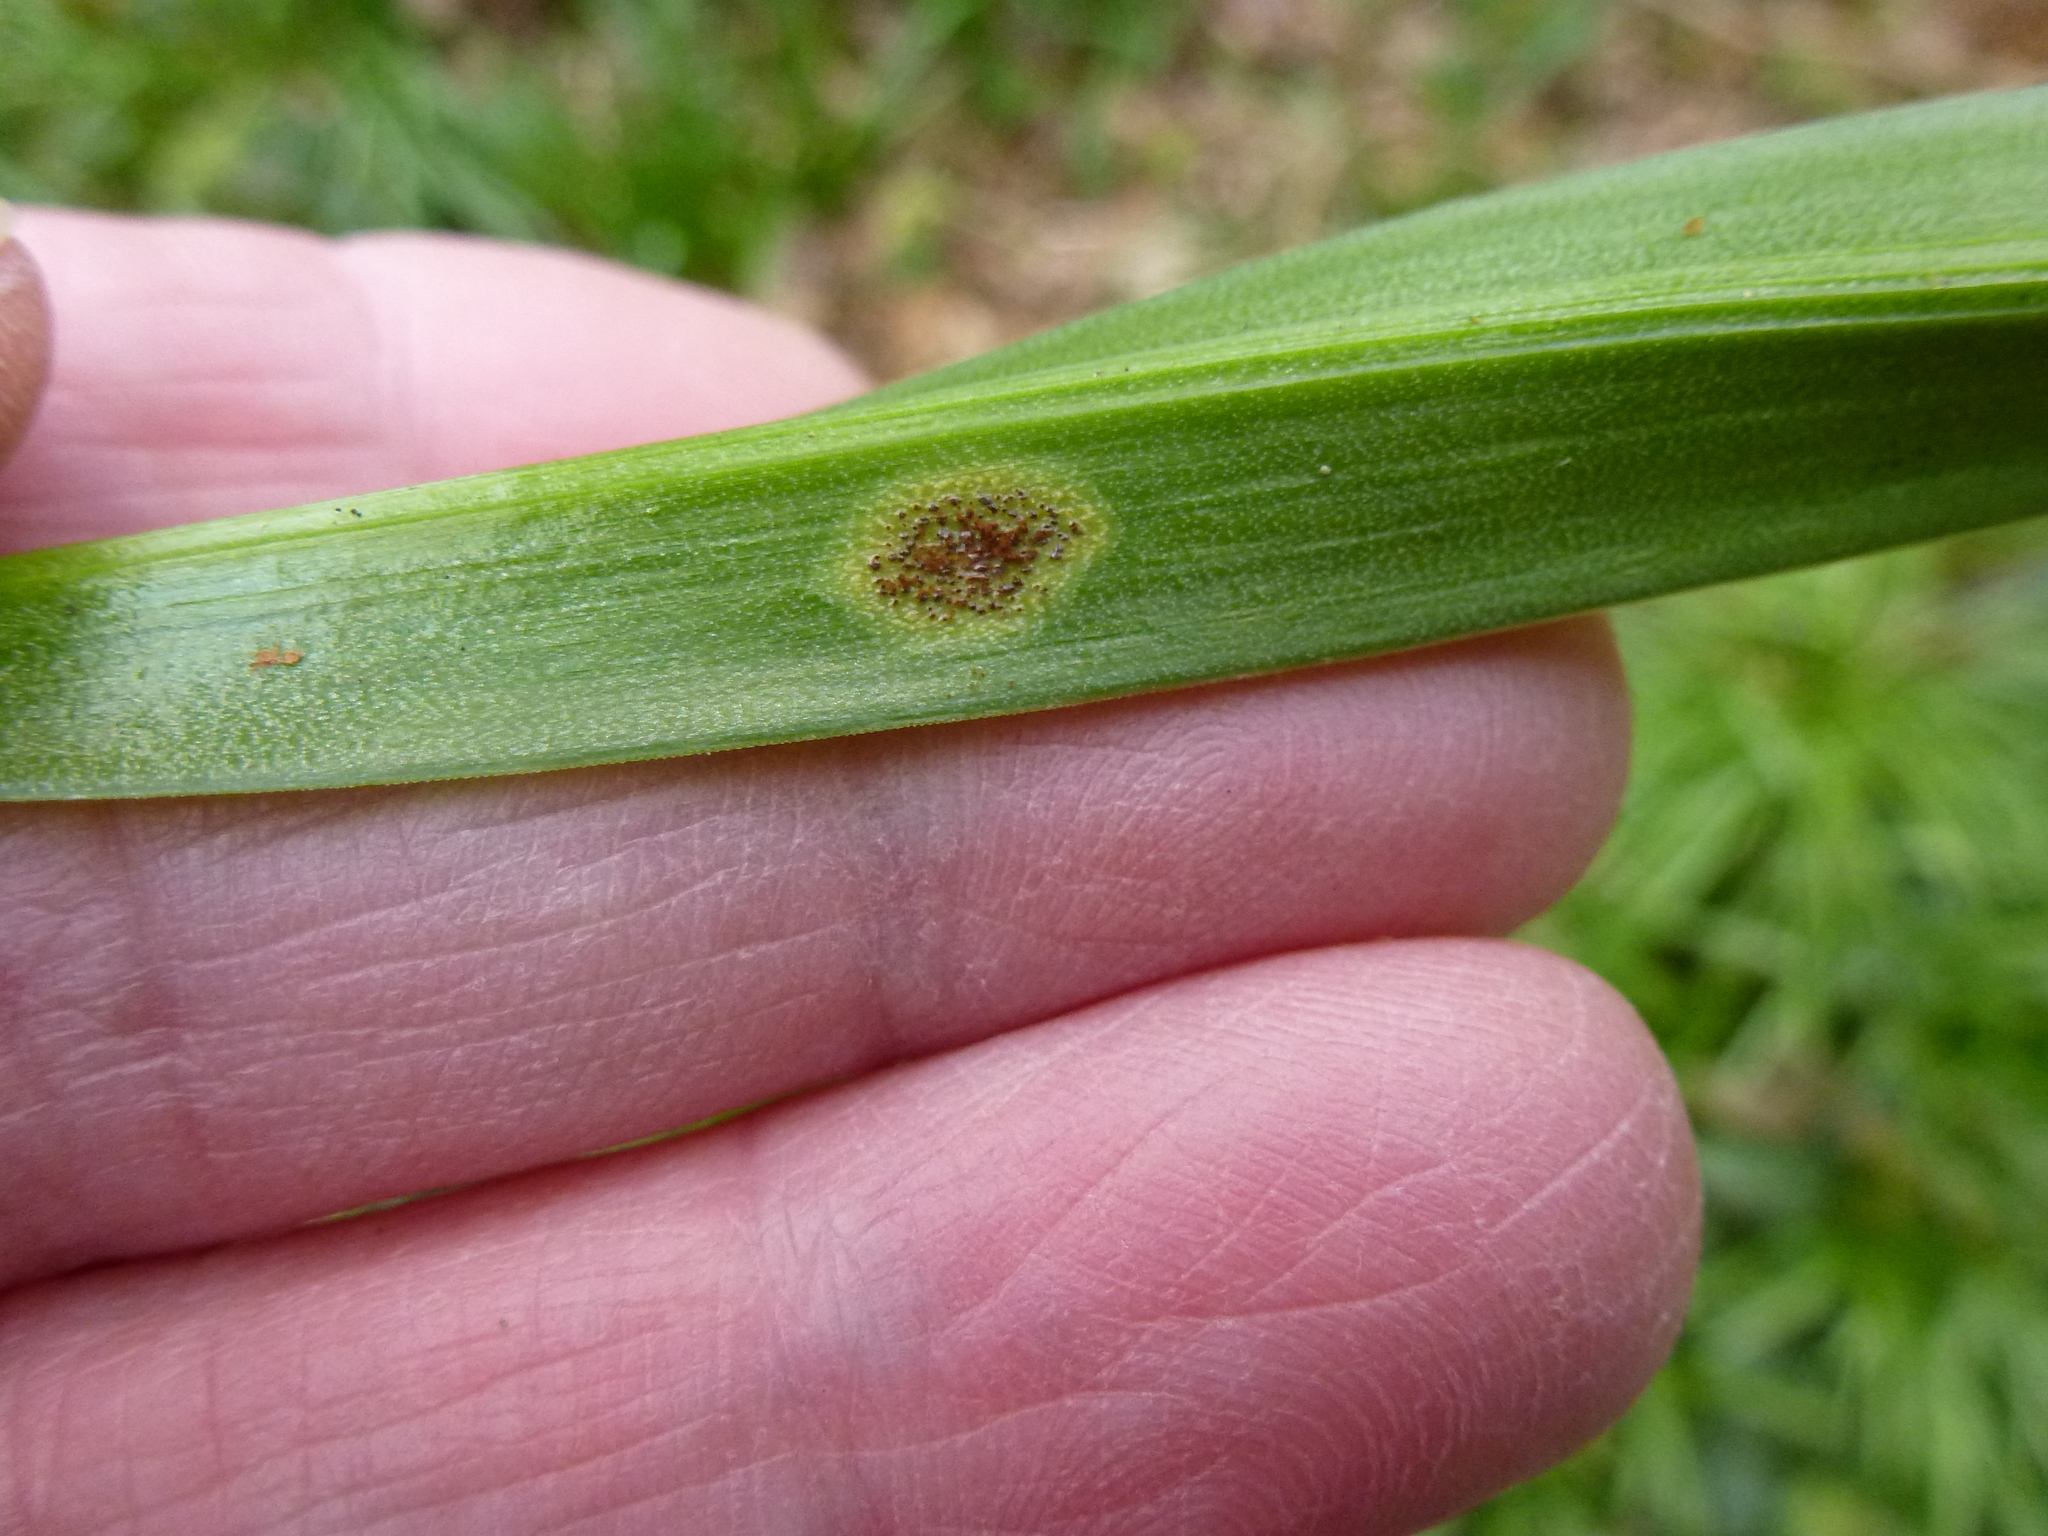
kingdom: Fungi
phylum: Basidiomycota
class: Pucciniomycetes
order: Pucciniales
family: Pucciniaceae
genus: Uromyces
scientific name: Uromyces hyacinthi
